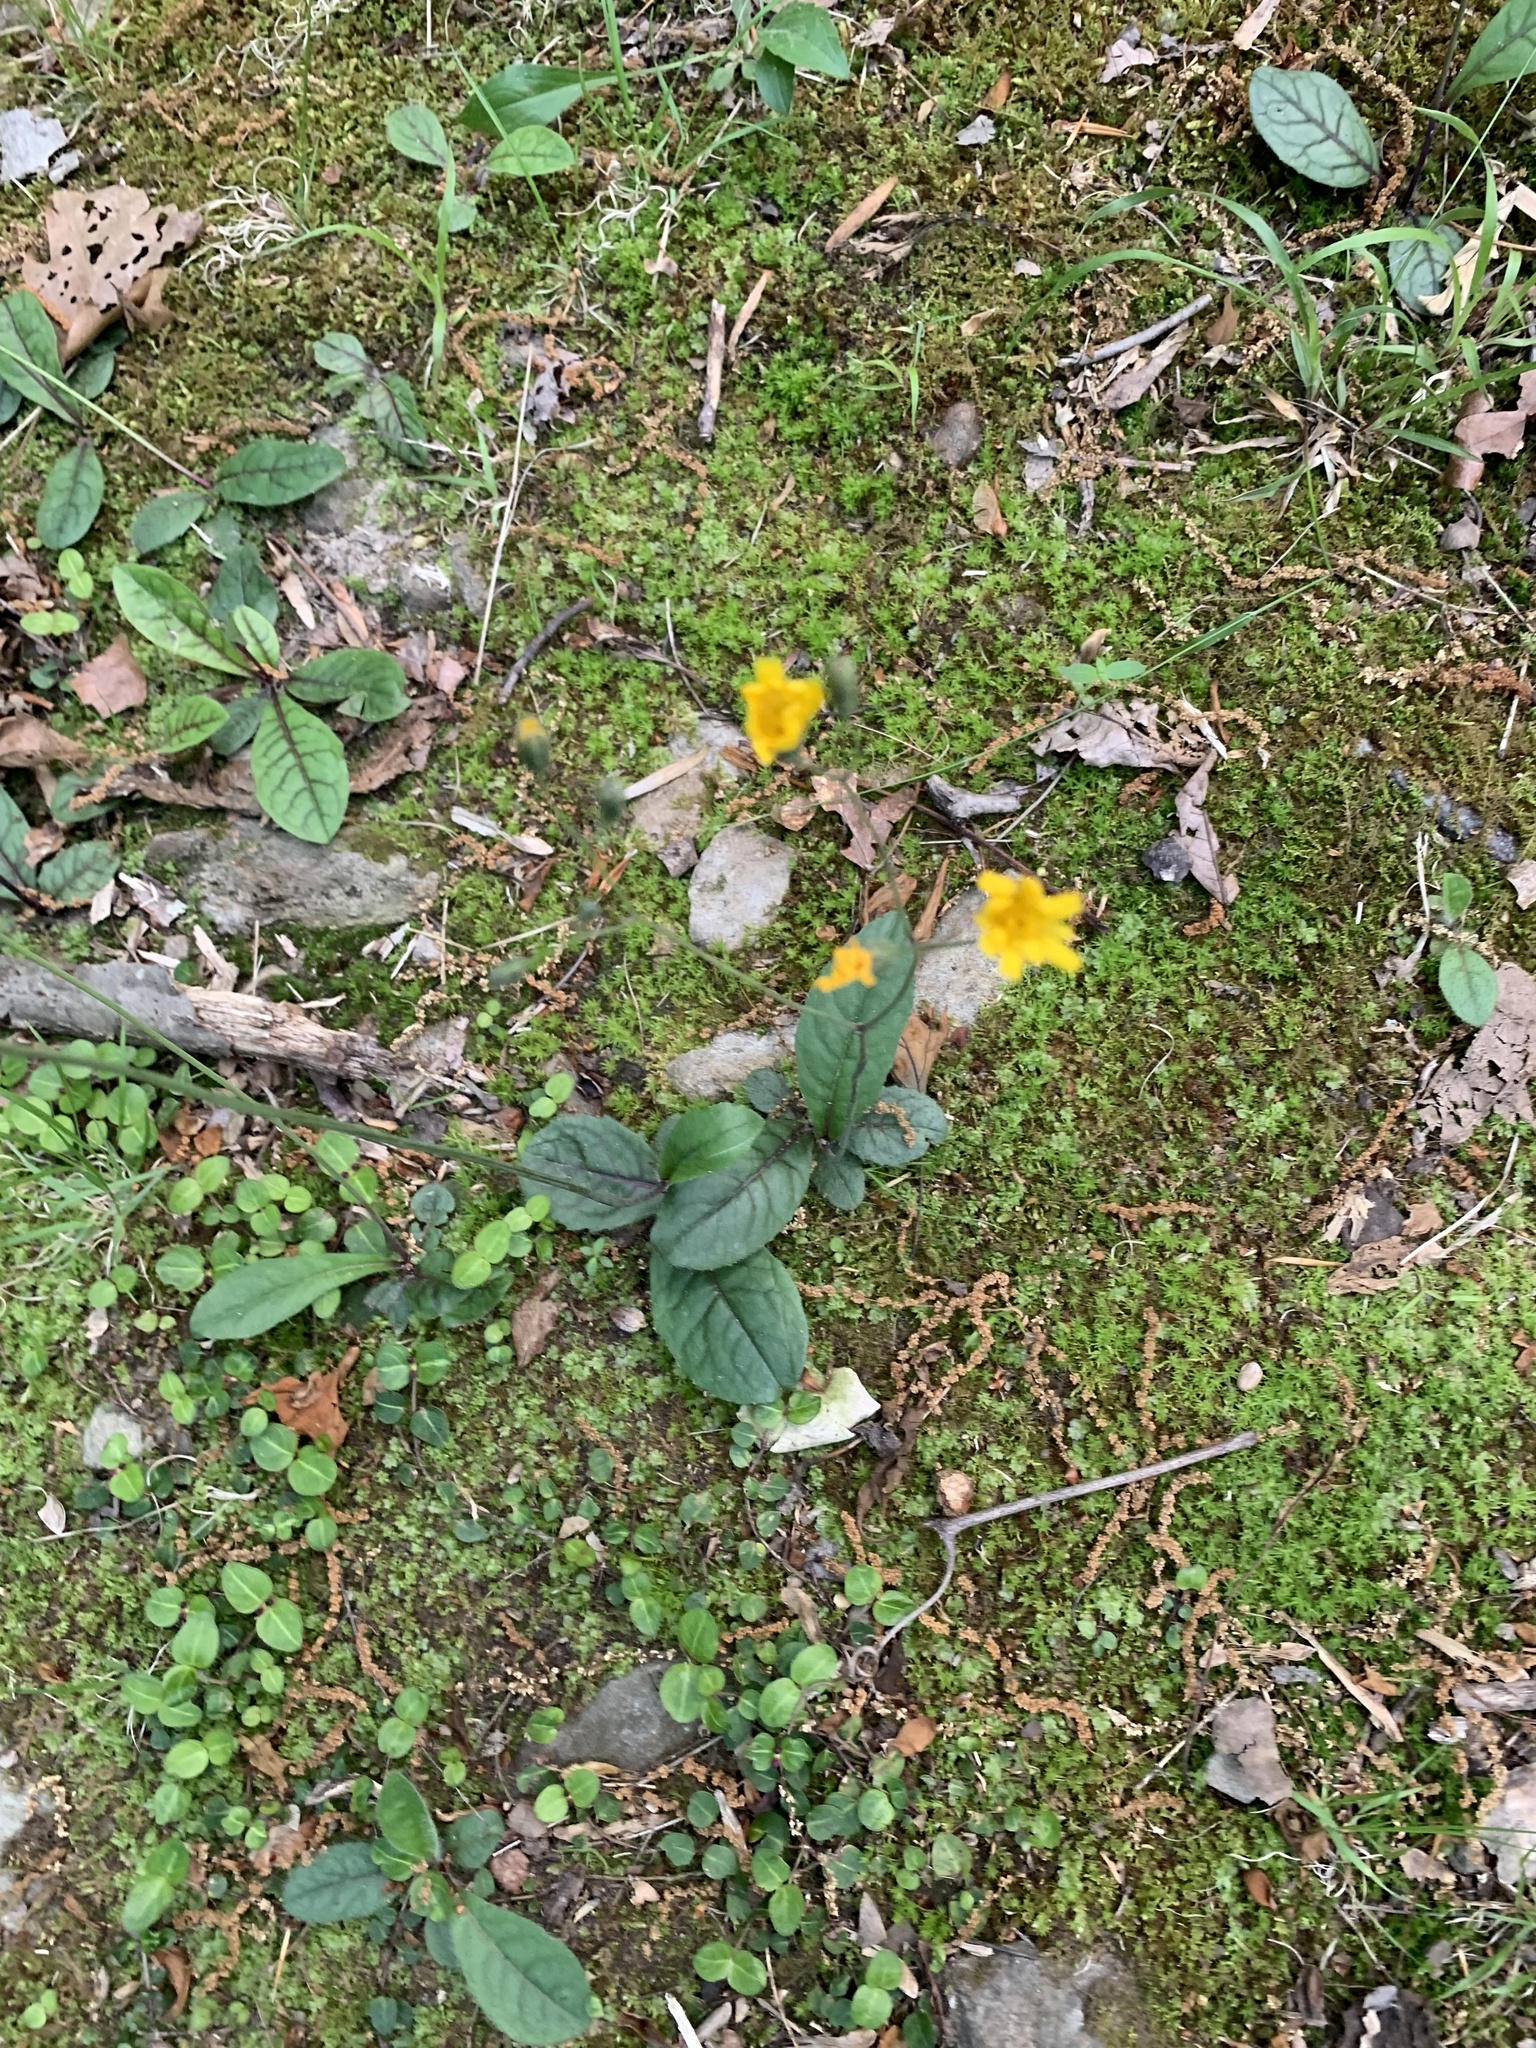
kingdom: Plantae
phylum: Tracheophyta
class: Magnoliopsida
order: Asterales
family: Asteraceae
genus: Hieracium
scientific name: Hieracium venosum
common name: Rattlesnake hawkweed
